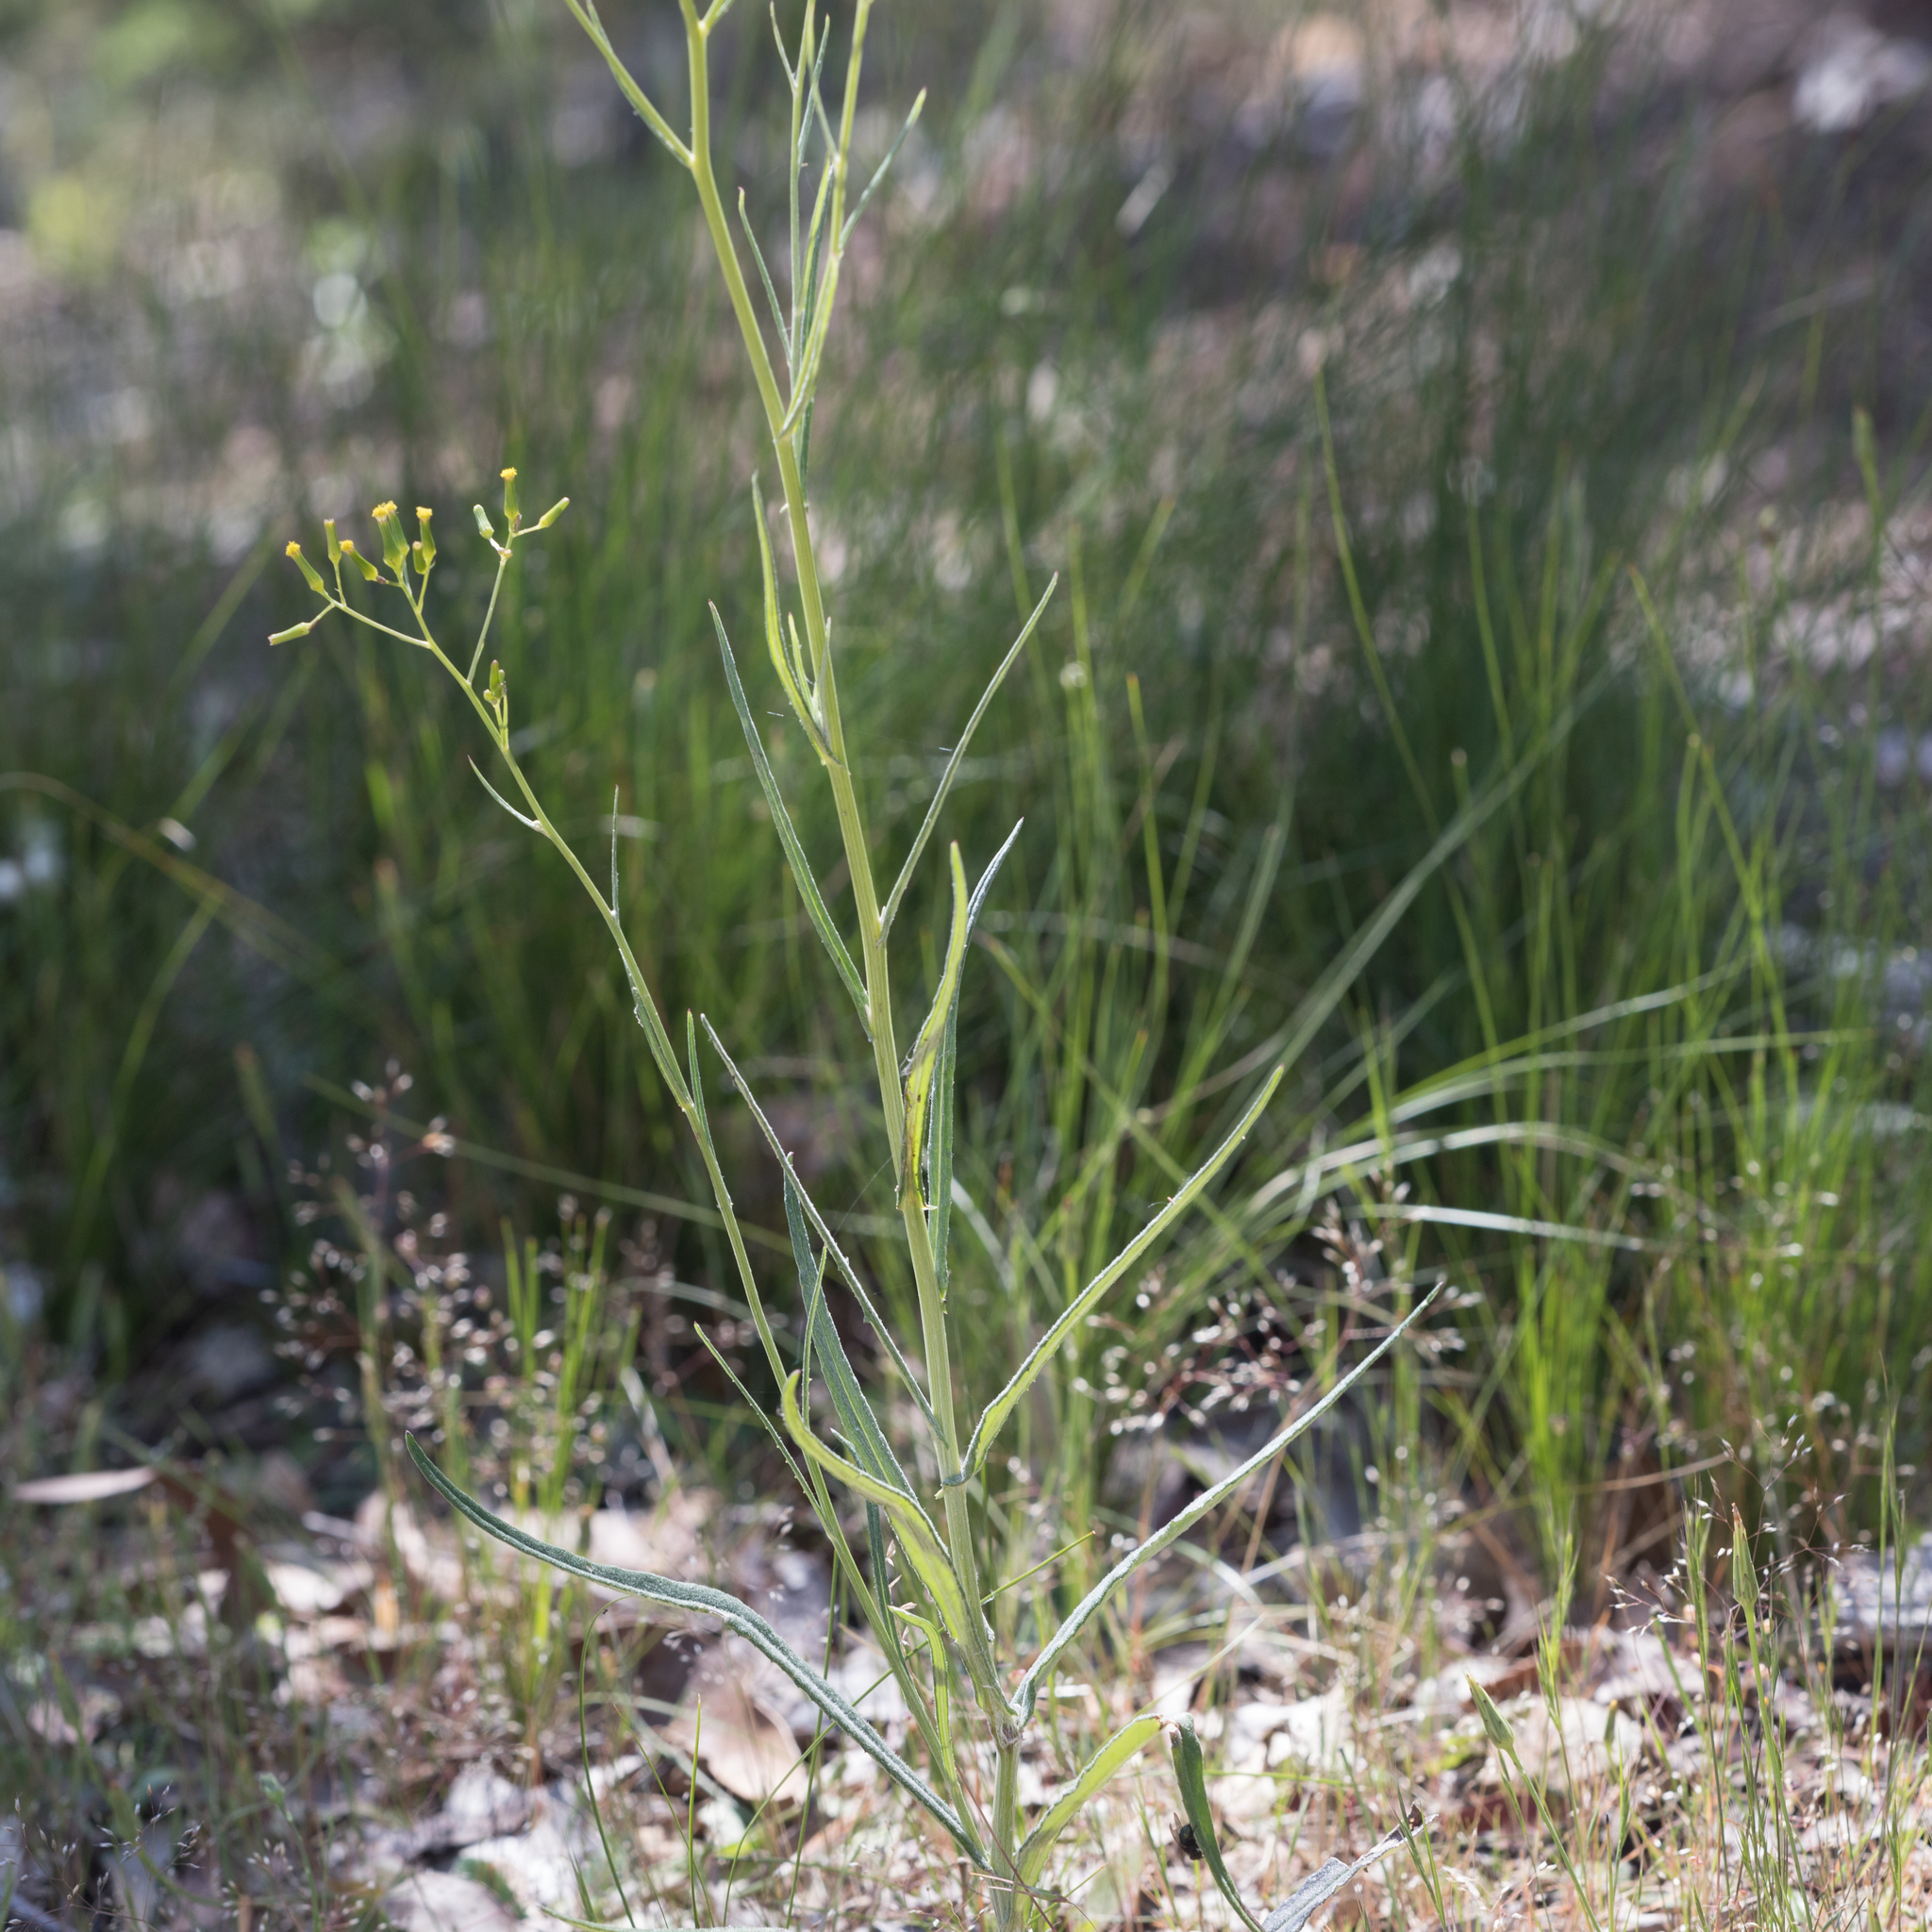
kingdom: Plantae
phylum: Tracheophyta
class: Magnoliopsida
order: Asterales
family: Asteraceae
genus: Senecio
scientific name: Senecio quadridentatus
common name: Cotton fireweed
